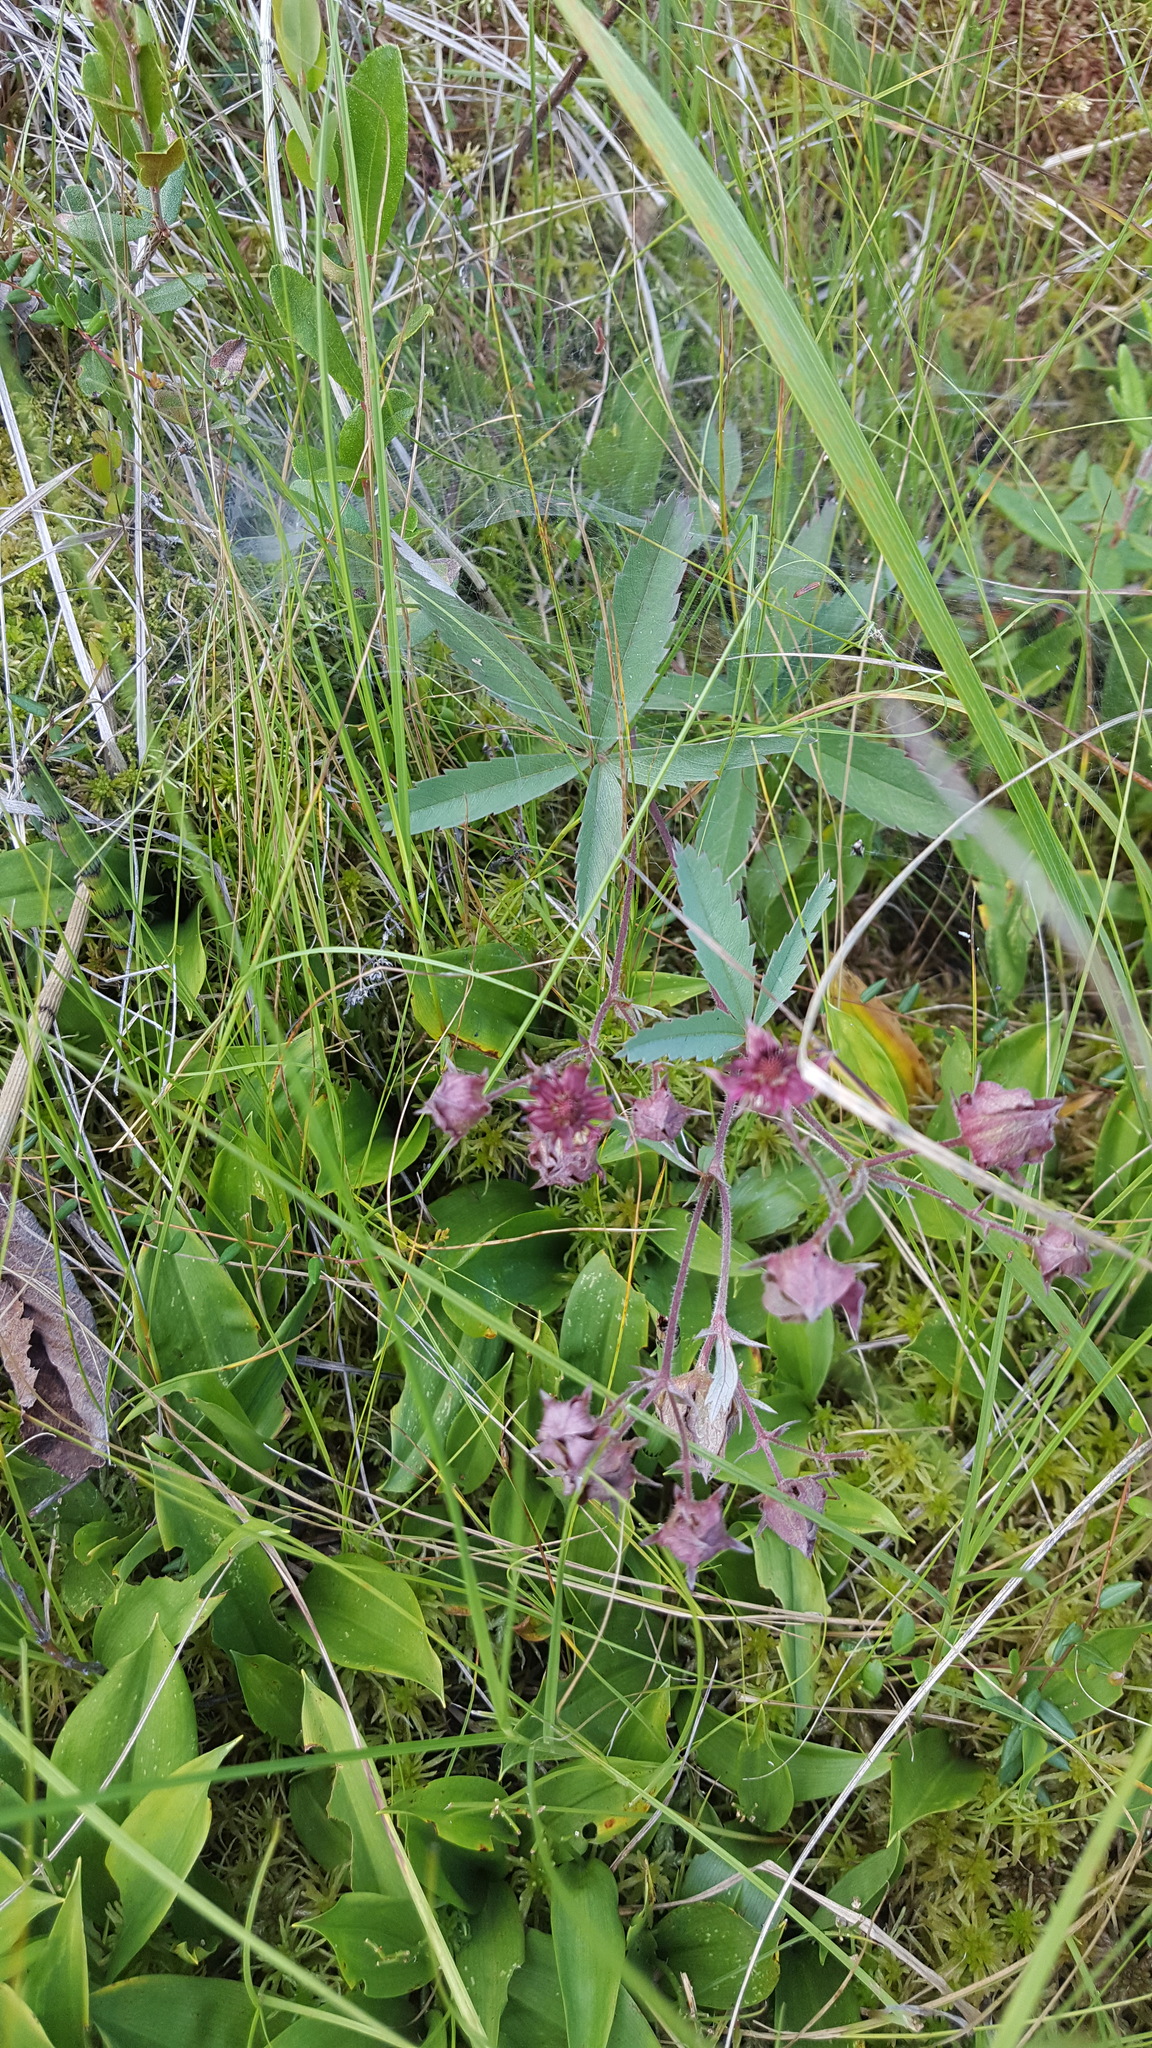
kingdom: Plantae
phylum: Tracheophyta
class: Magnoliopsida
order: Rosales
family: Rosaceae
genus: Comarum
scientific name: Comarum palustre
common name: Marsh cinquefoil
